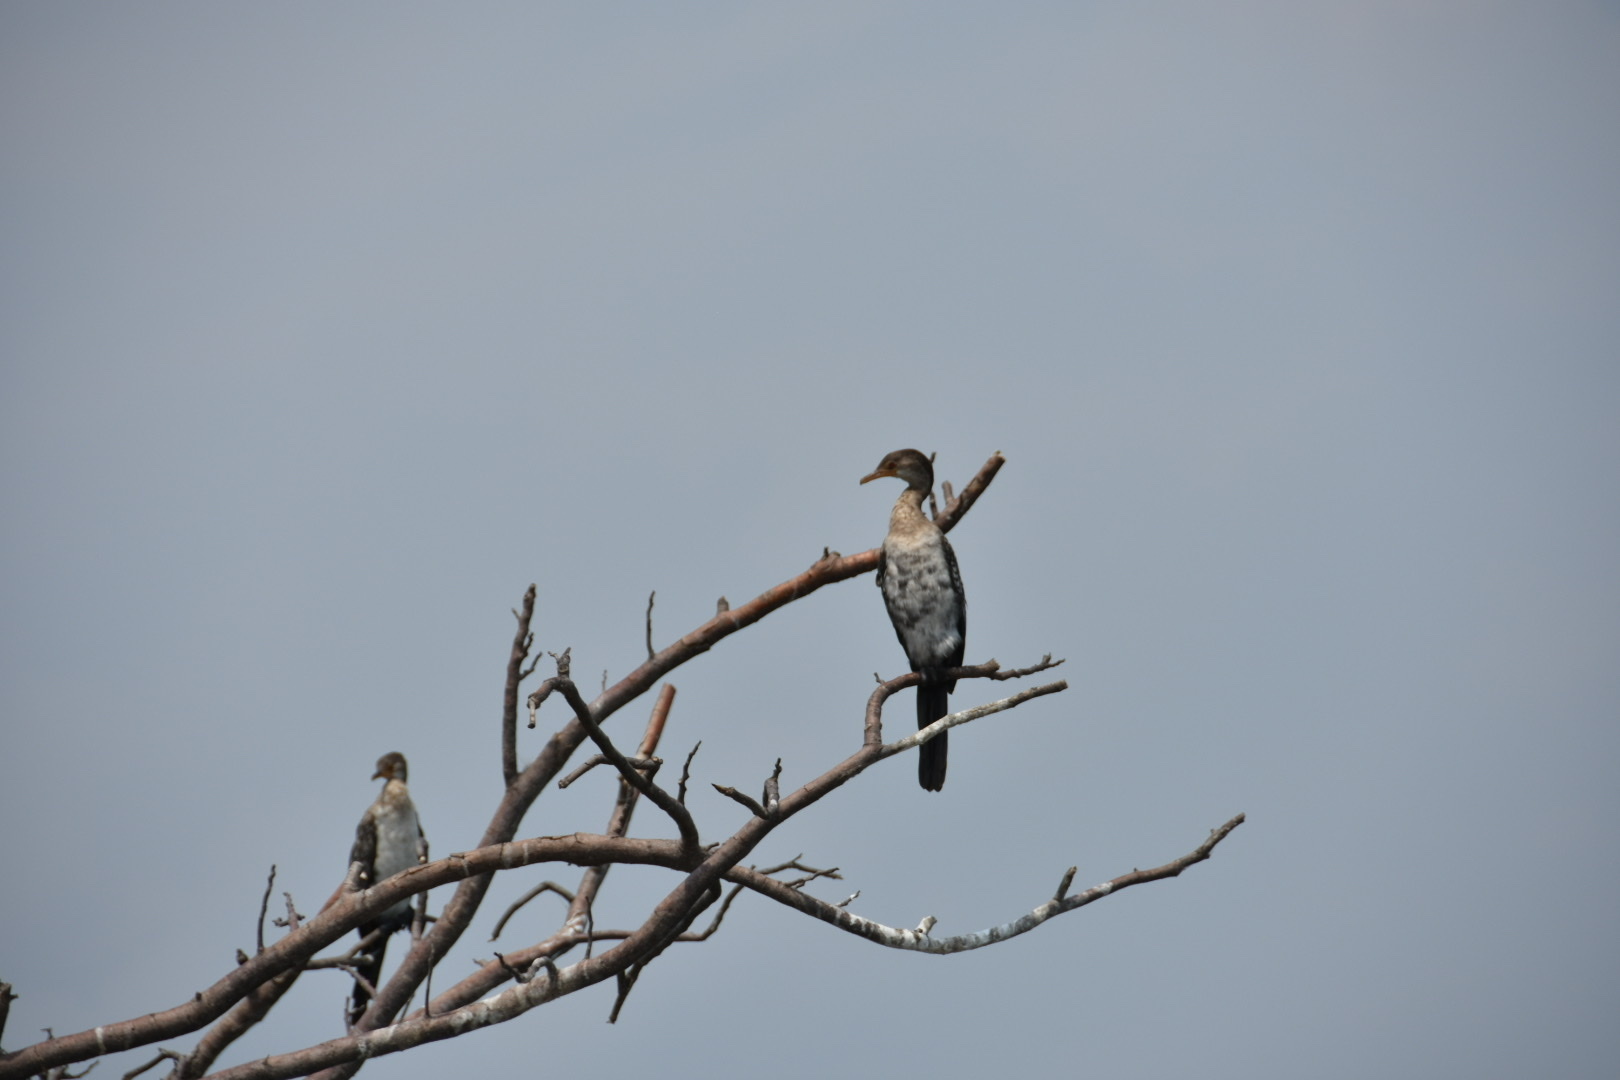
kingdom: Animalia
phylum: Chordata
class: Aves
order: Suliformes
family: Phalacrocoracidae
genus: Microcarbo
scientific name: Microcarbo africanus
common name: Long-tailed cormorant
